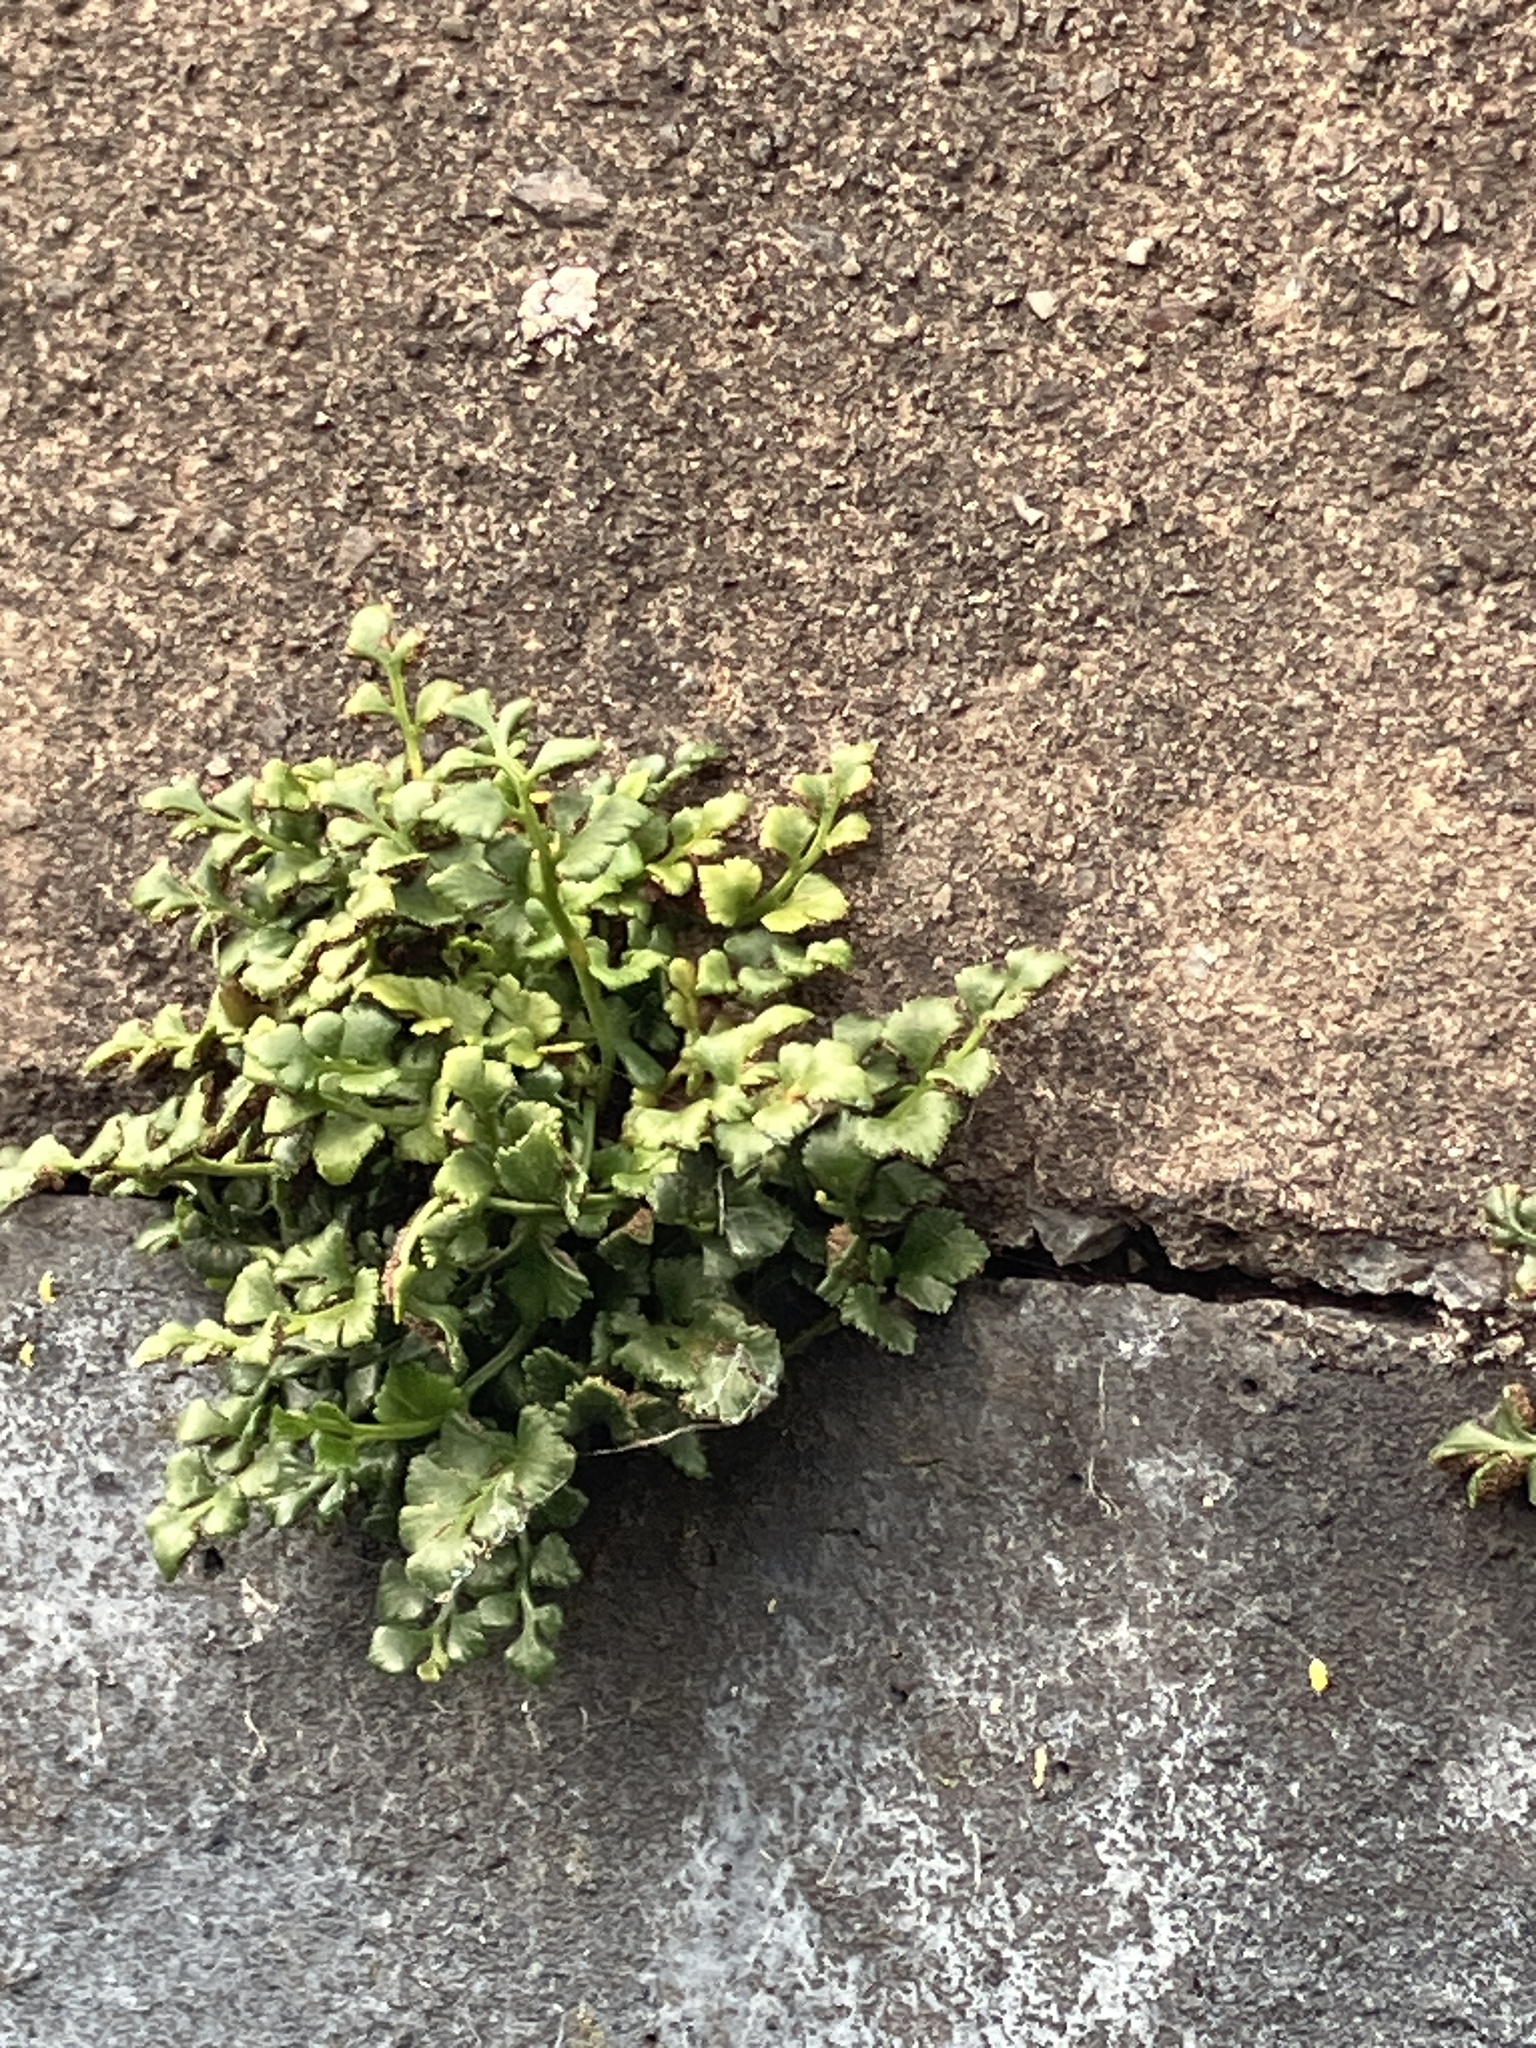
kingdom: Plantae
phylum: Tracheophyta
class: Polypodiopsida
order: Polypodiales
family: Aspleniaceae
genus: Asplenium
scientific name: Asplenium ruta-muraria
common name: Wall-rue
